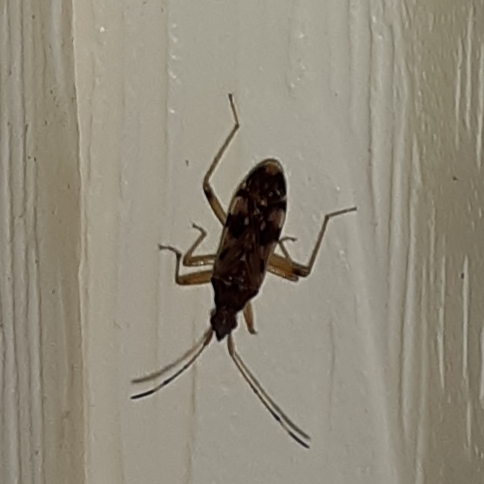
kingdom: Animalia
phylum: Arthropoda
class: Insecta
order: Hemiptera
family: Rhyparochromidae
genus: Ozophora
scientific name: Ozophora picturata
